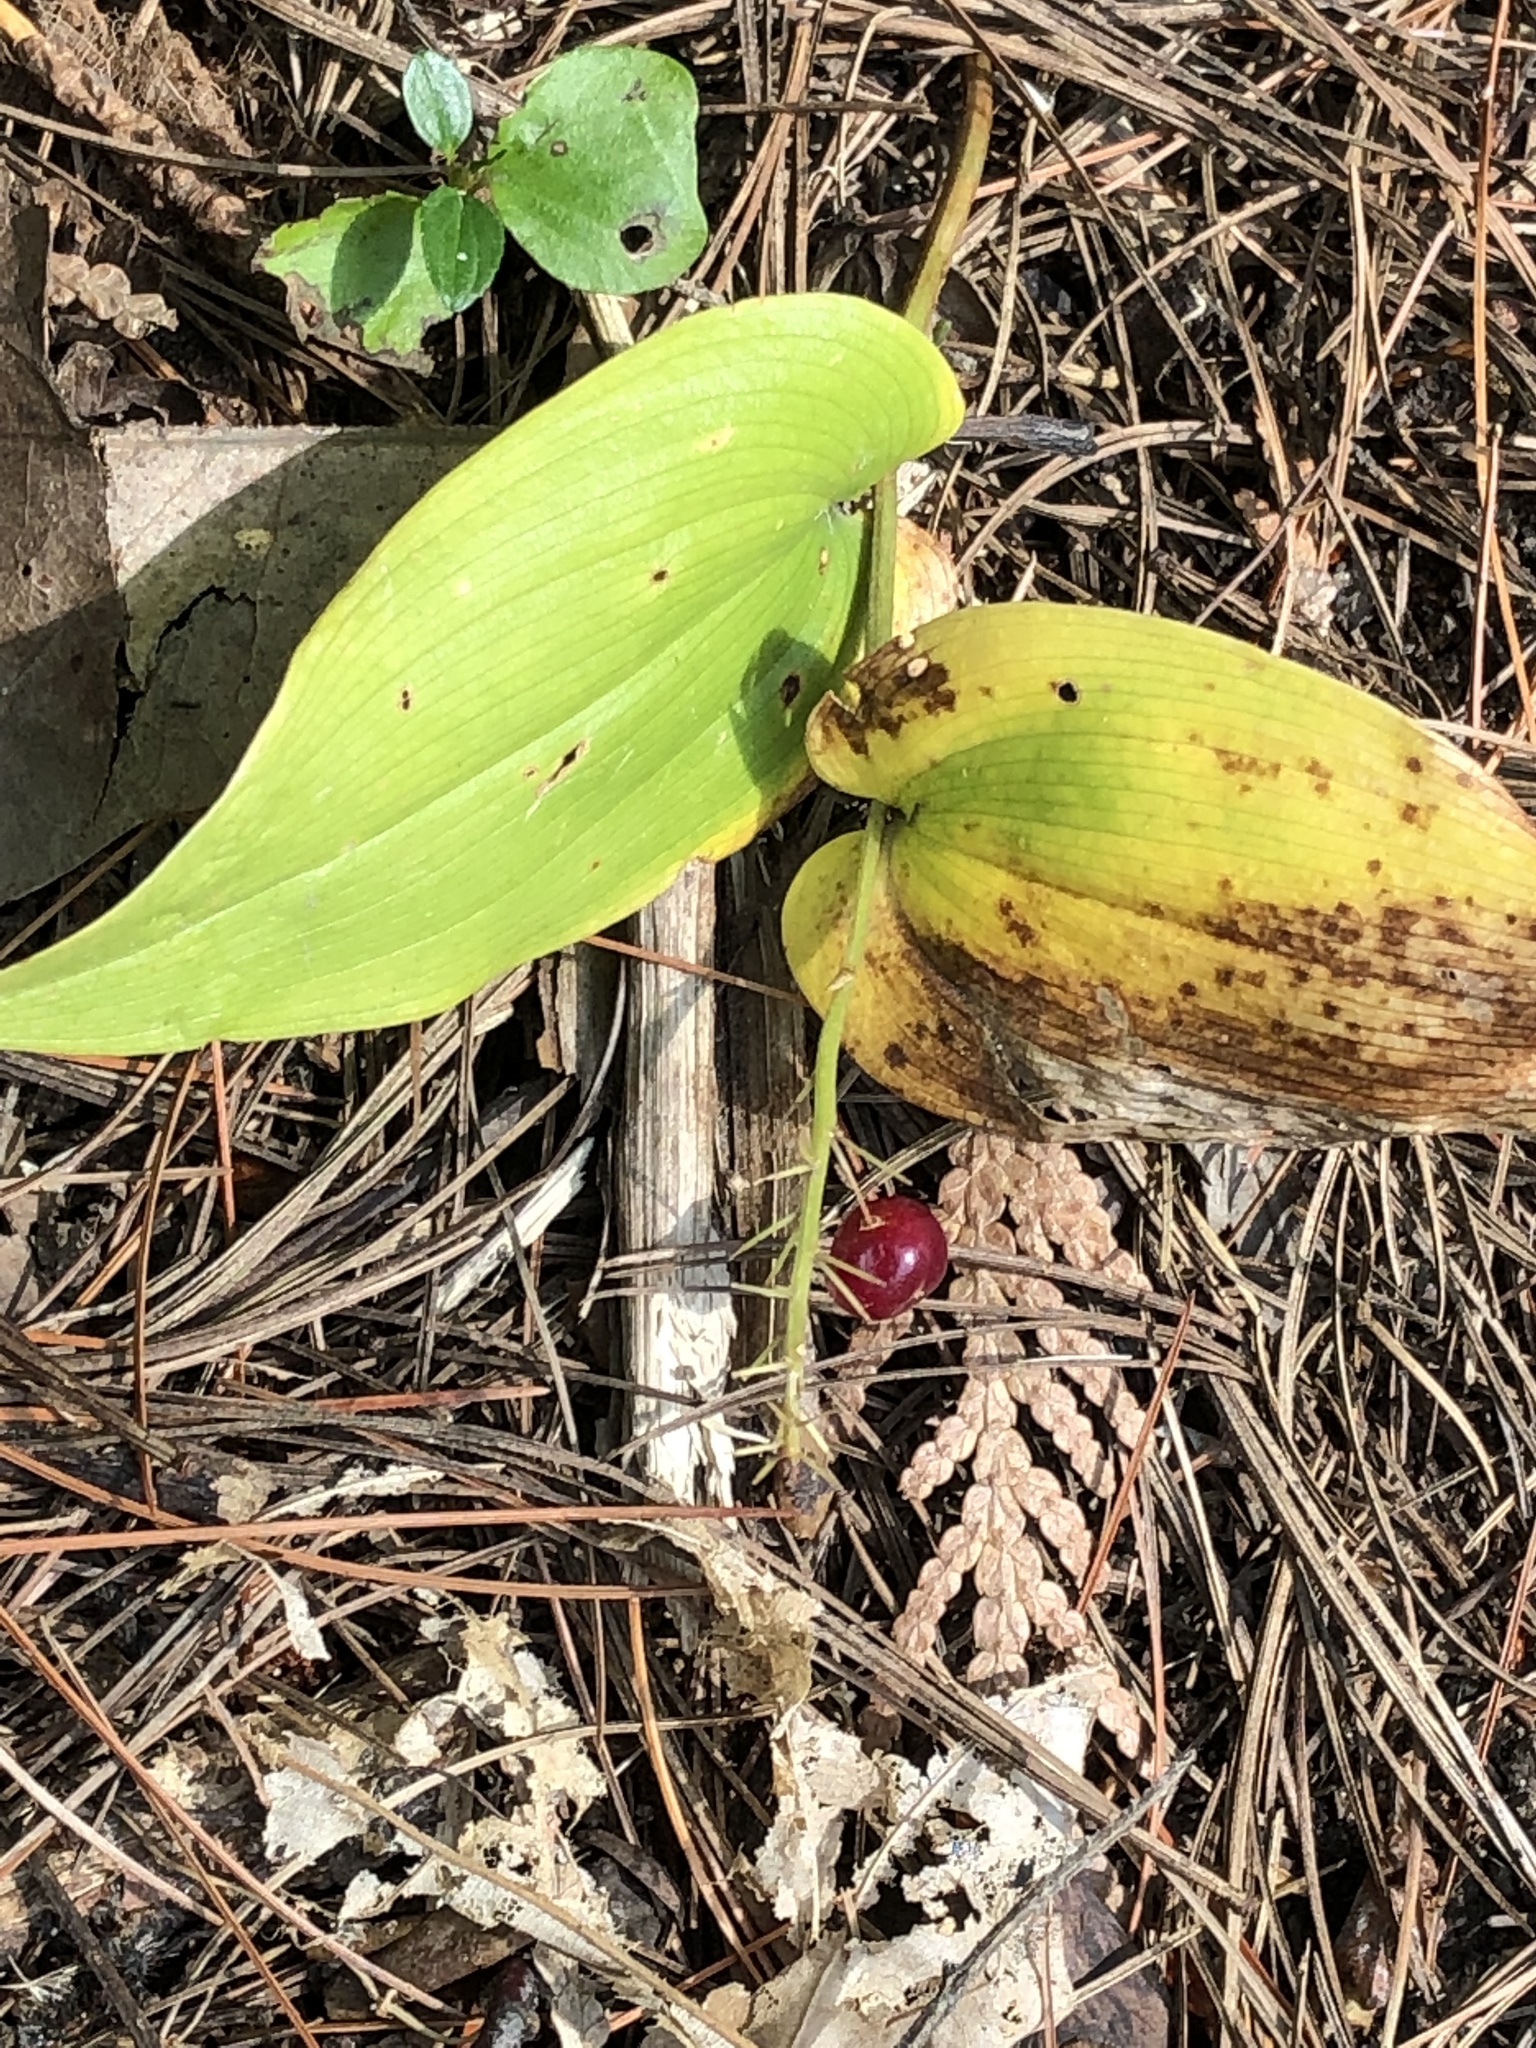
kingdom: Plantae
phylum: Tracheophyta
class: Liliopsida
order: Asparagales
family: Asparagaceae
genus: Maianthemum
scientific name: Maianthemum canadense
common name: False lily-of-the-valley
